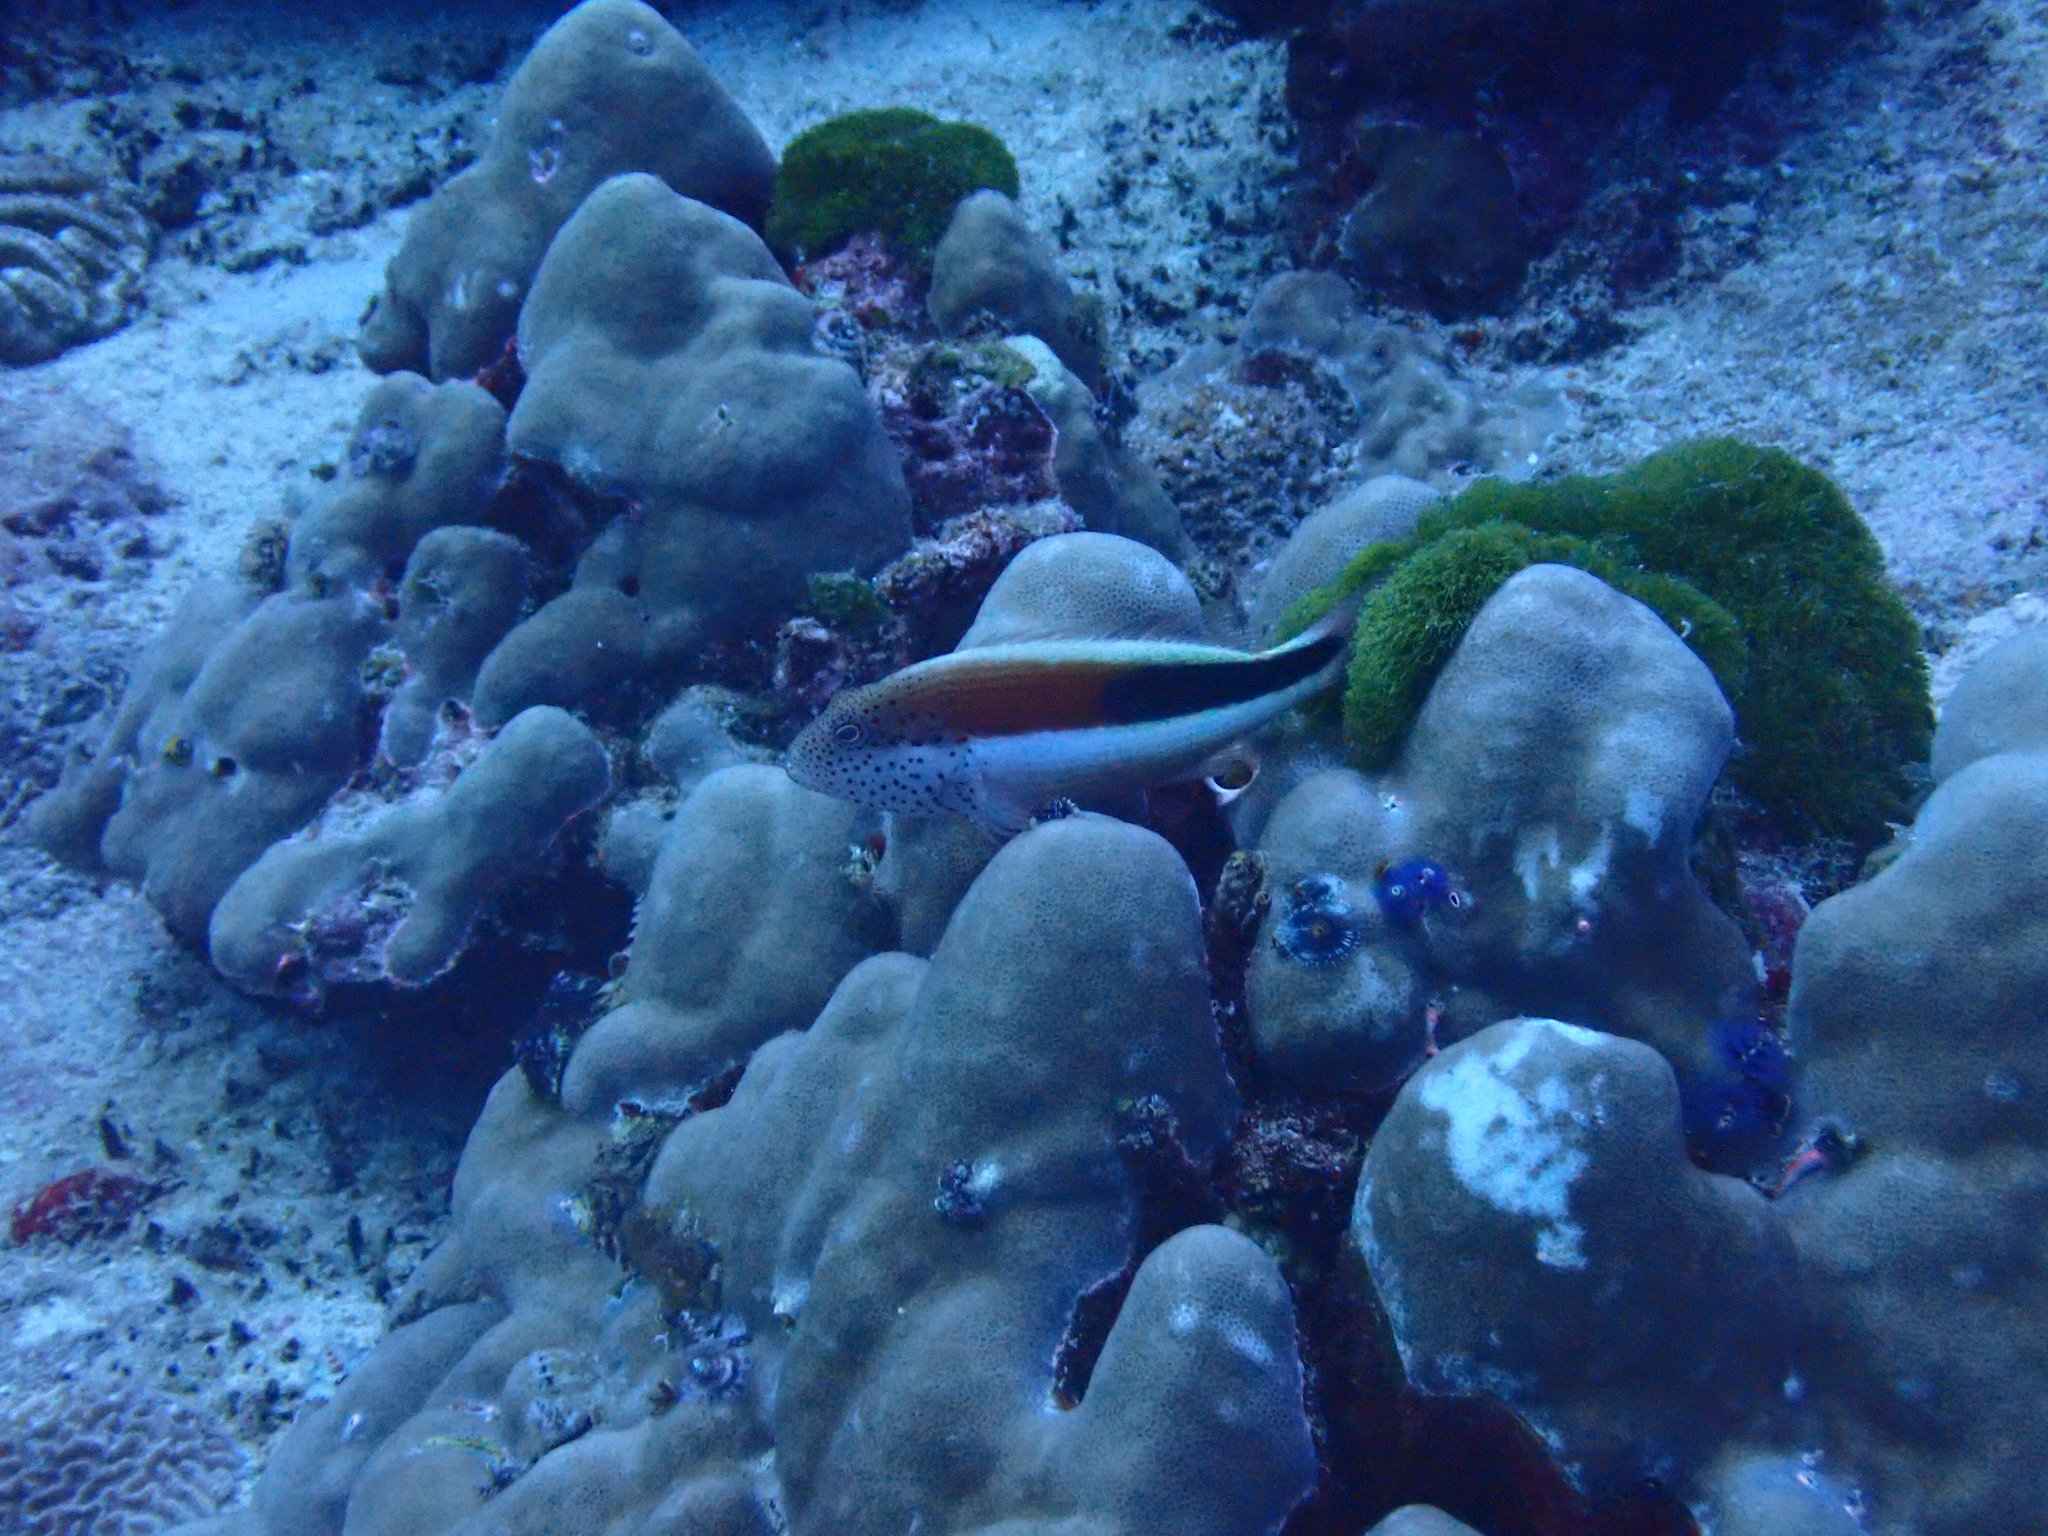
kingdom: Animalia
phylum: Chordata
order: Perciformes
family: Cirrhitidae
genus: Paracirrhites
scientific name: Paracirrhites forsteri
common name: Freckled hawkfish
